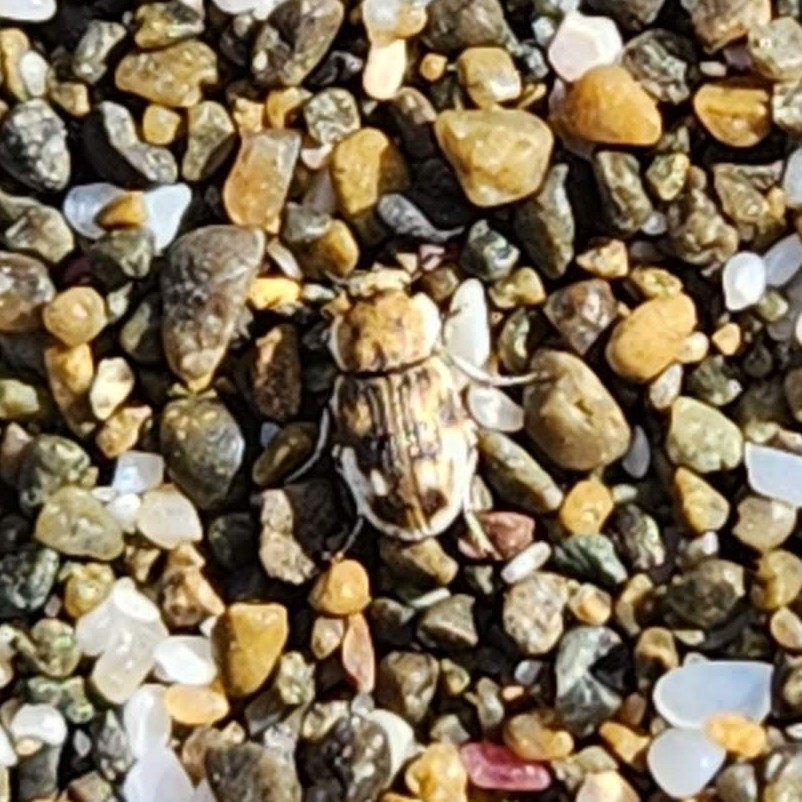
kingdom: Animalia
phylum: Arthropoda
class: Insecta
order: Coleoptera
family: Tenebrionidae
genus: Actizeta
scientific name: Actizeta
